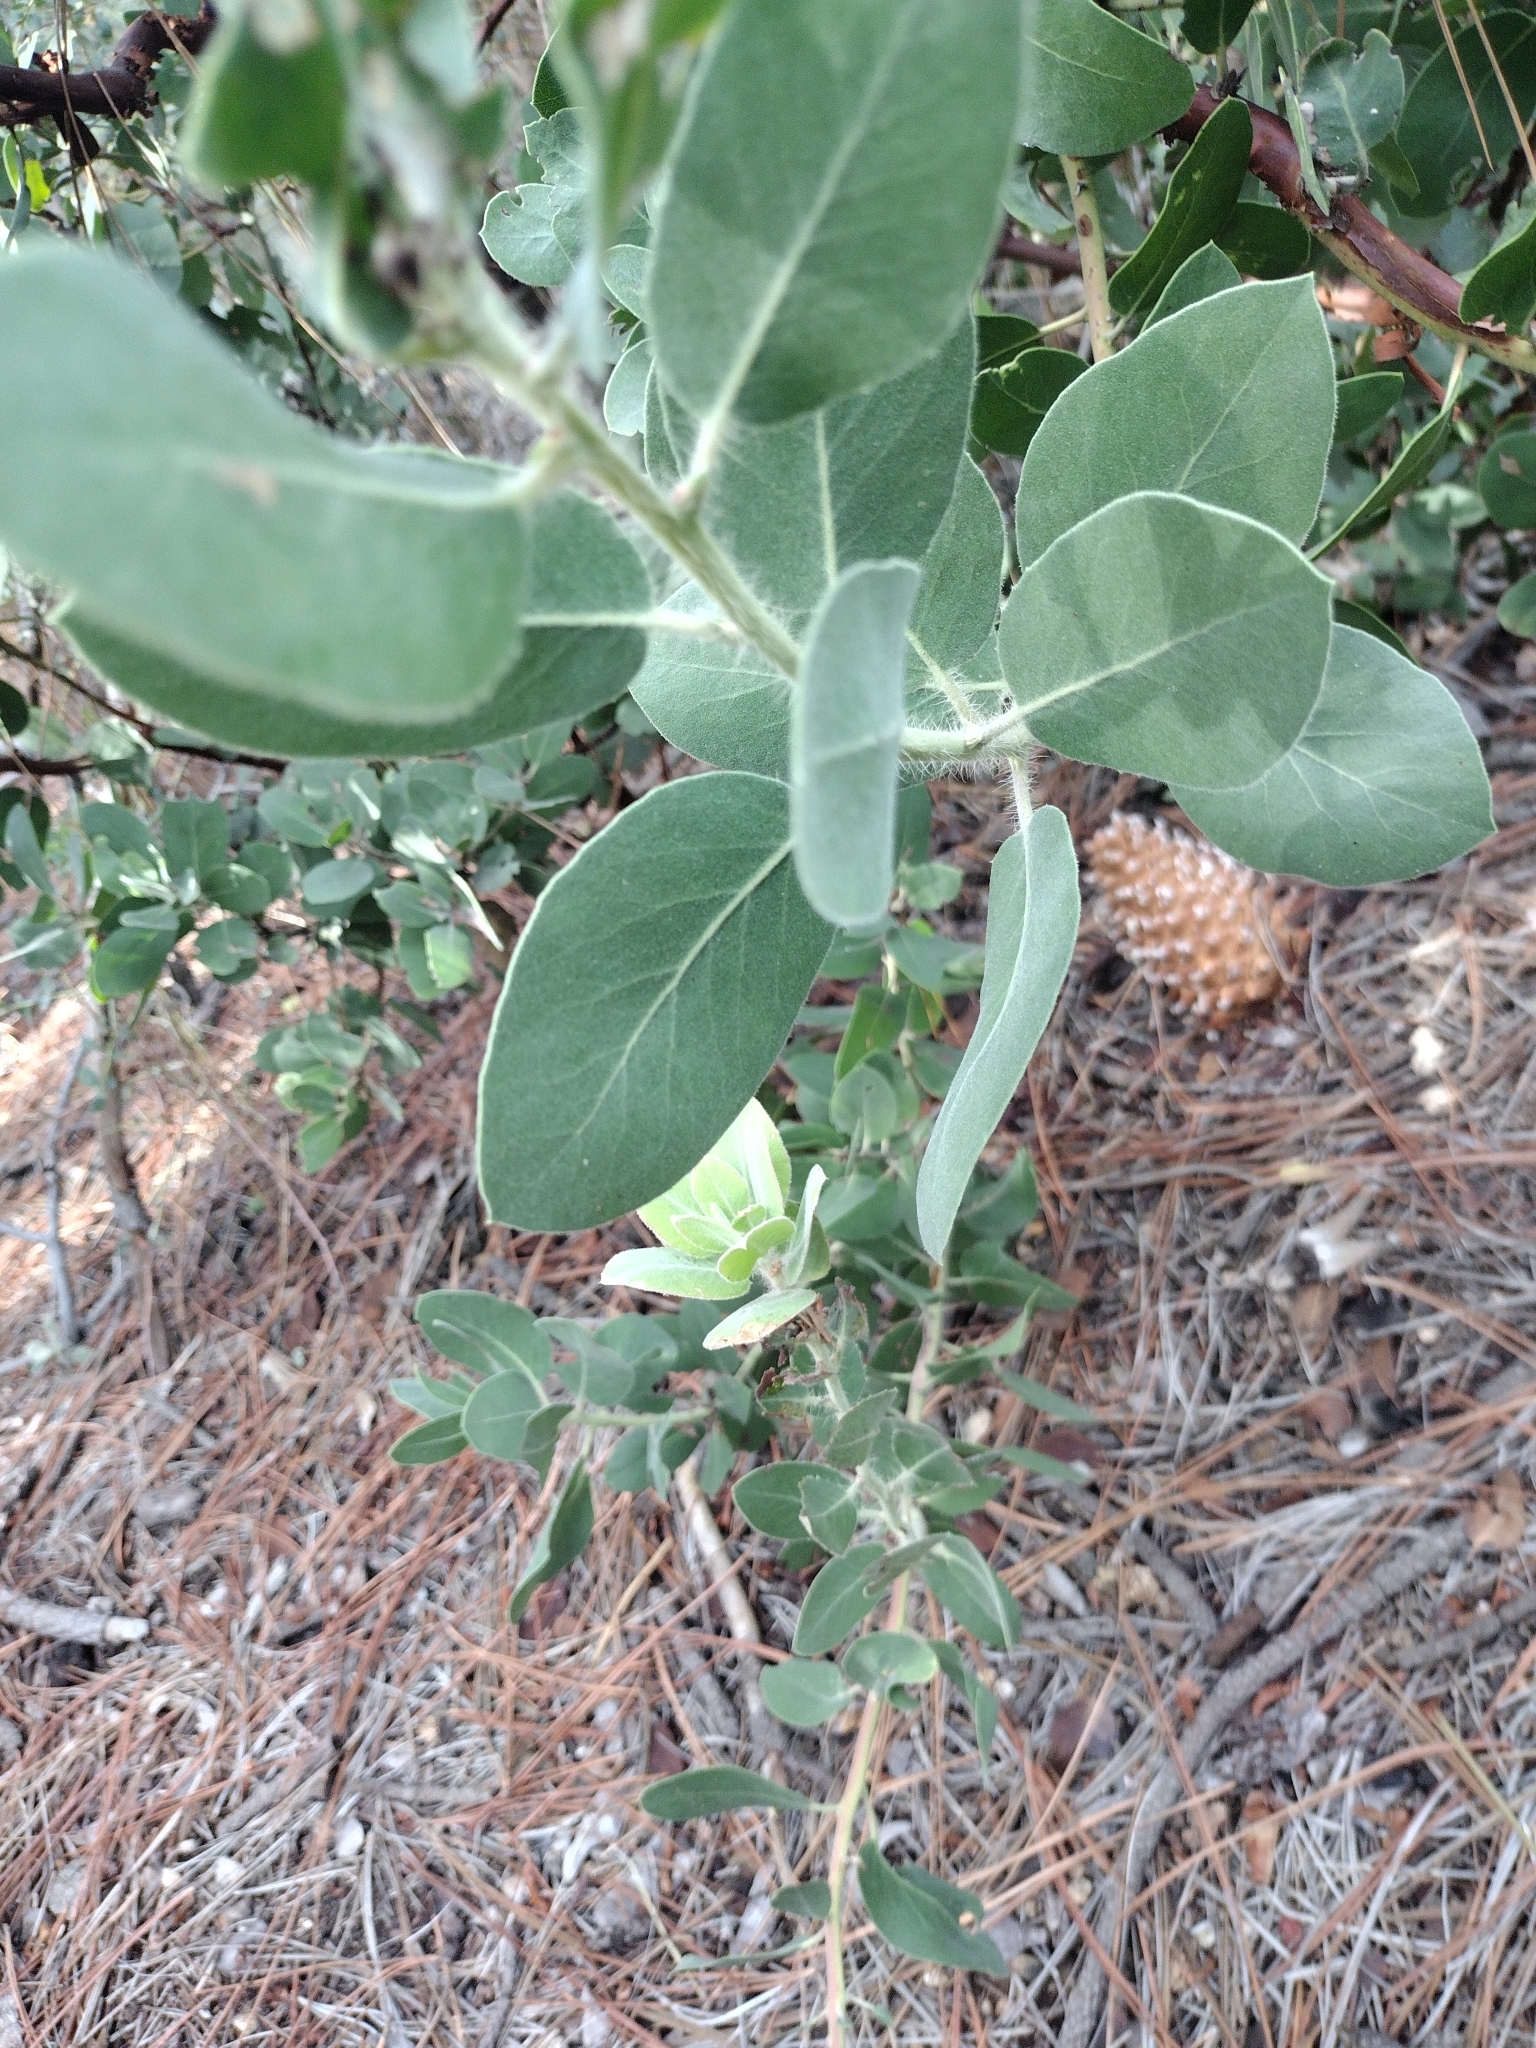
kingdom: Plantae
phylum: Tracheophyta
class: Magnoliopsida
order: Ericales
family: Ericaceae
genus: Arctostaphylos
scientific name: Arctostaphylos glandulosa
